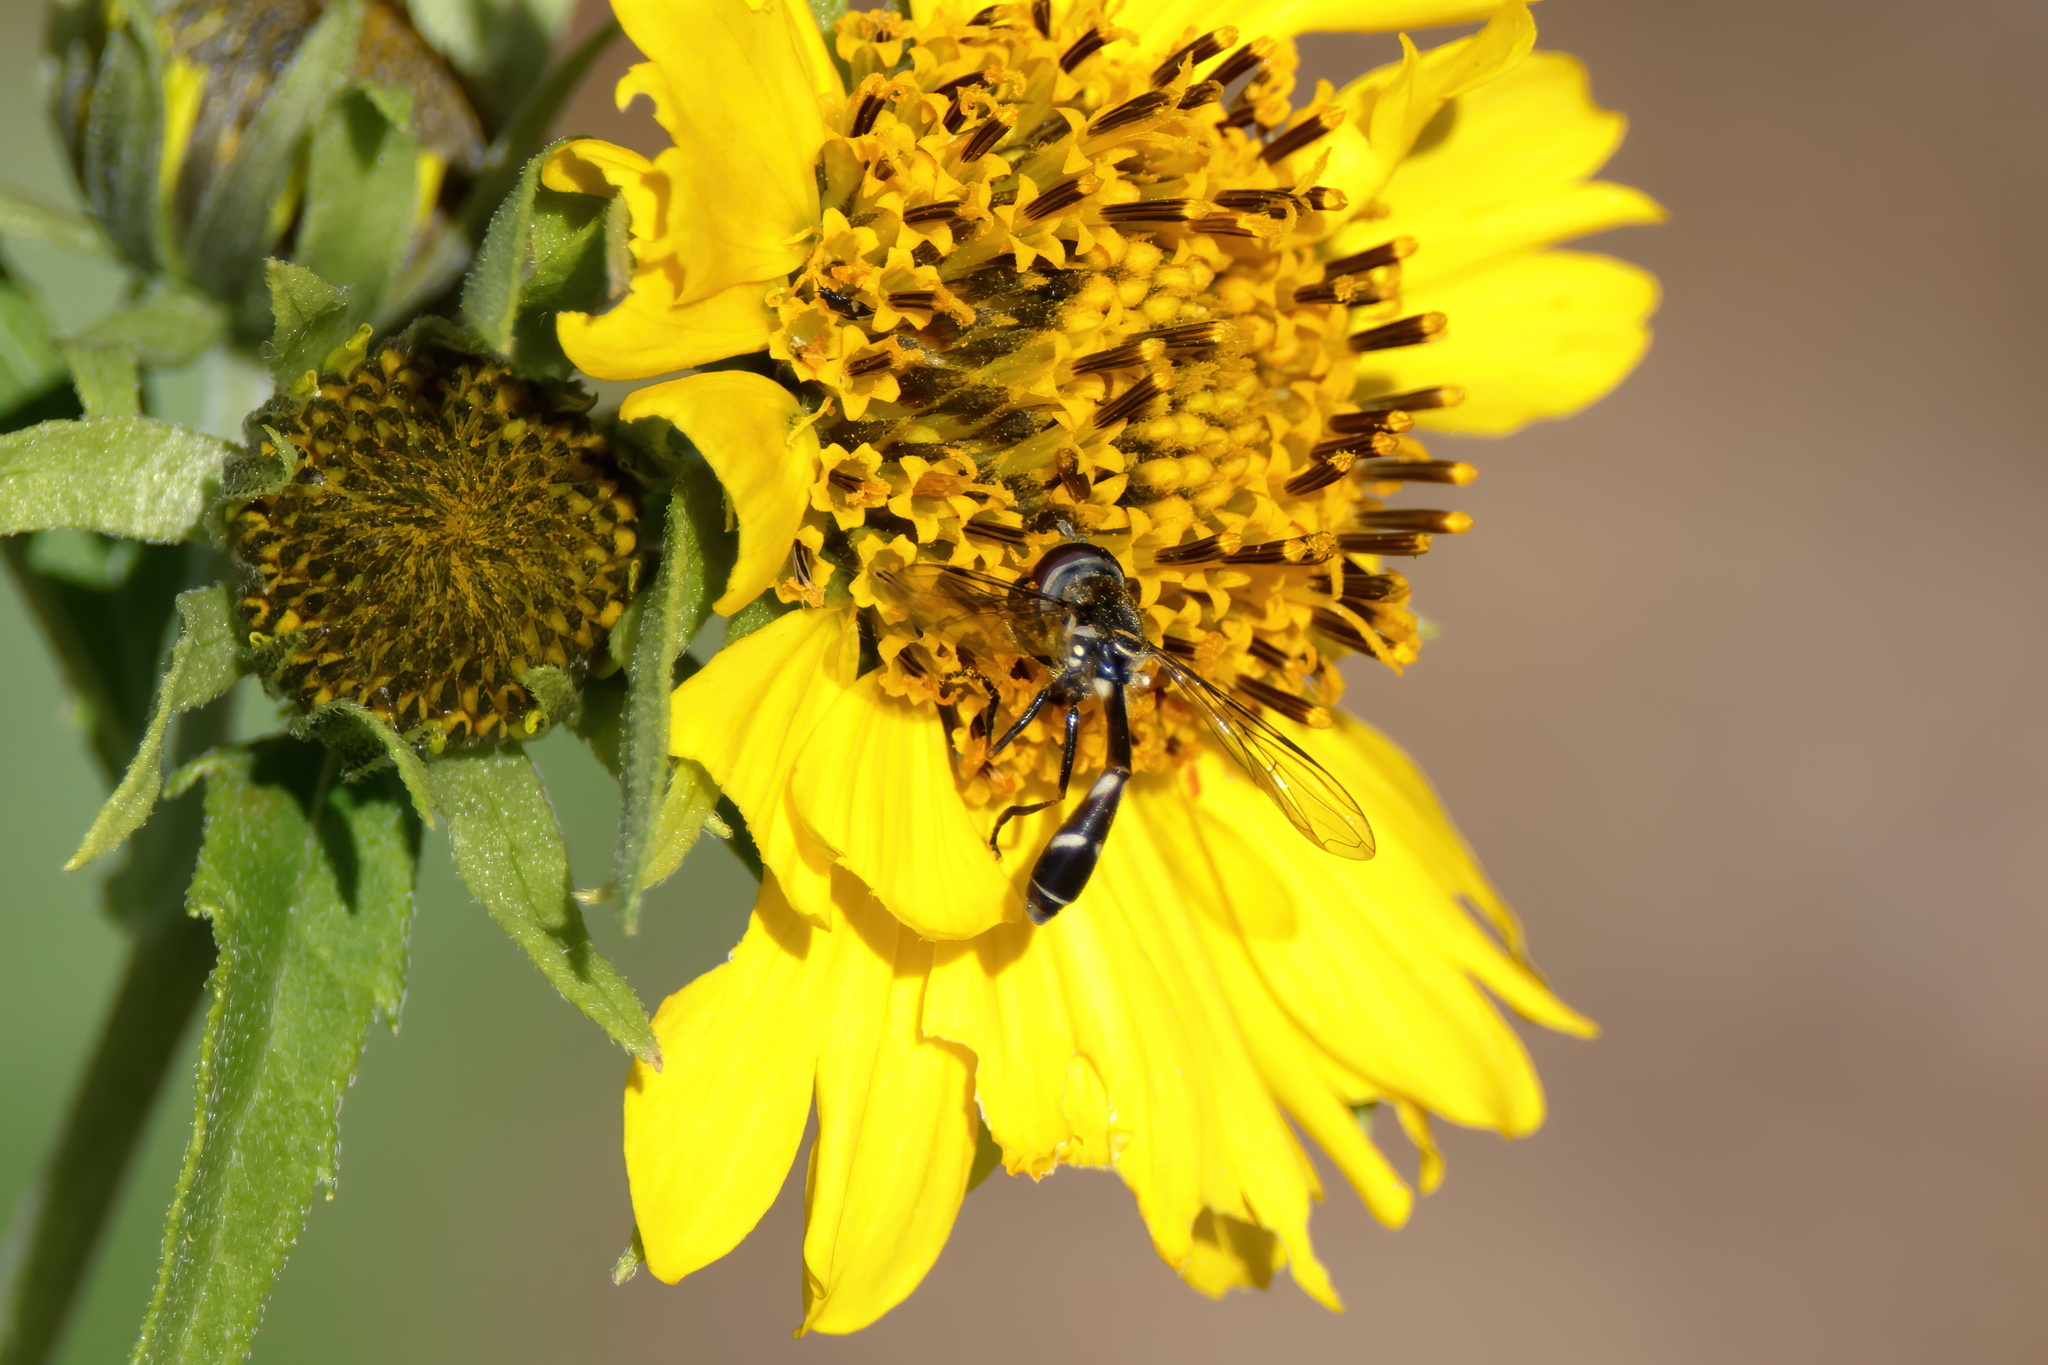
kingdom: Animalia
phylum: Arthropoda
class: Insecta
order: Diptera
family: Syrphidae
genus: Dioprosopa
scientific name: Dioprosopa clavatus
